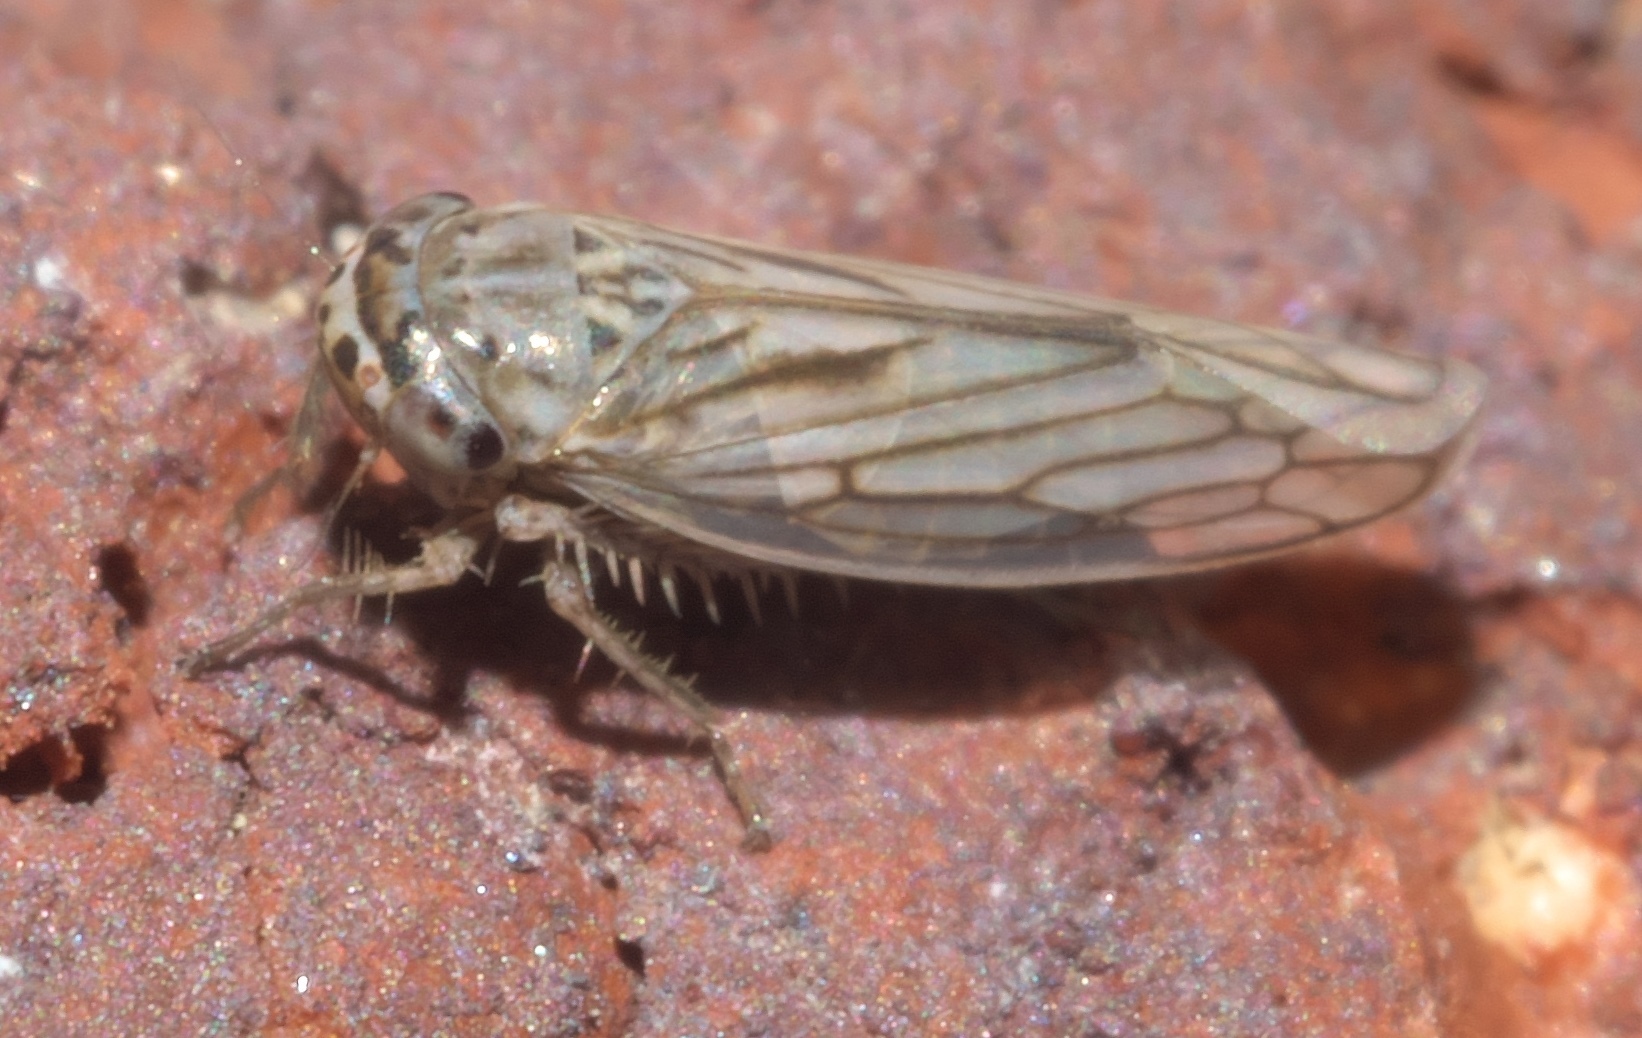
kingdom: Animalia
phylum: Arthropoda
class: Insecta
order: Hemiptera
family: Cicadellidae
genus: Exitianus
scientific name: Exitianus exitiosus
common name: Gray lawn leafhopper
